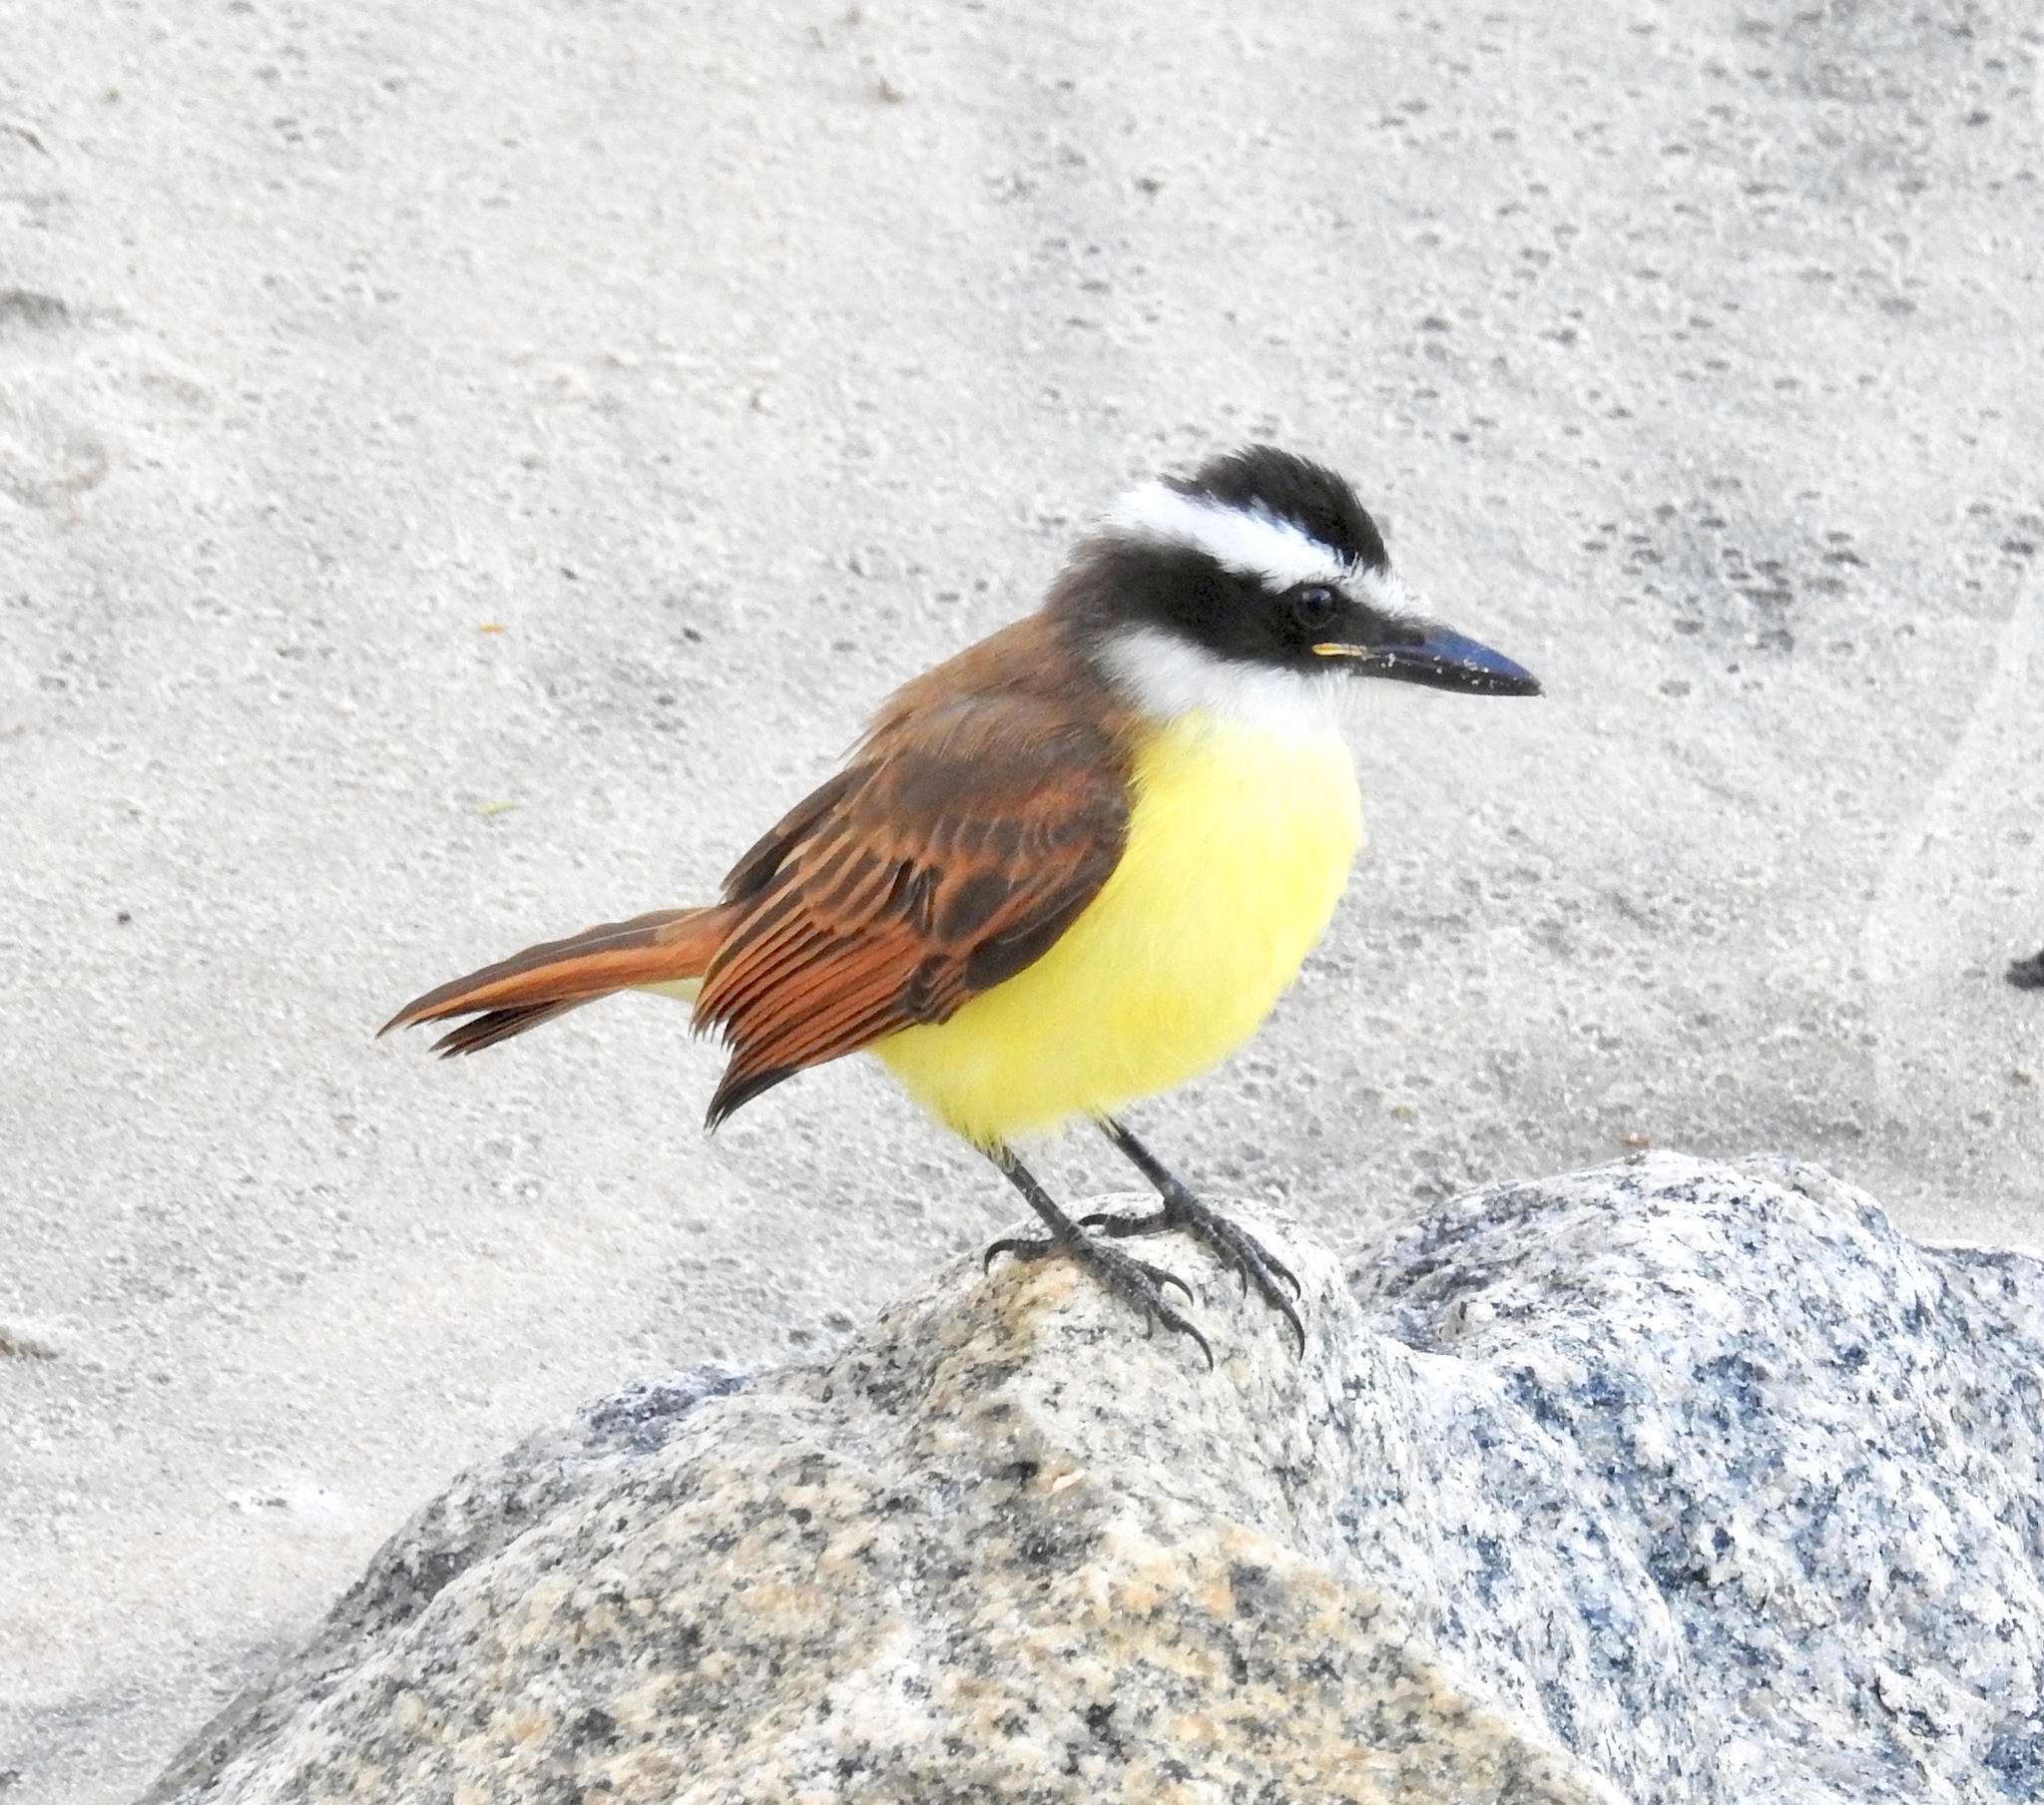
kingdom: Animalia
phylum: Chordata
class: Aves
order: Passeriformes
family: Tyrannidae
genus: Pitangus
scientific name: Pitangus sulphuratus
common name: Great kiskadee
